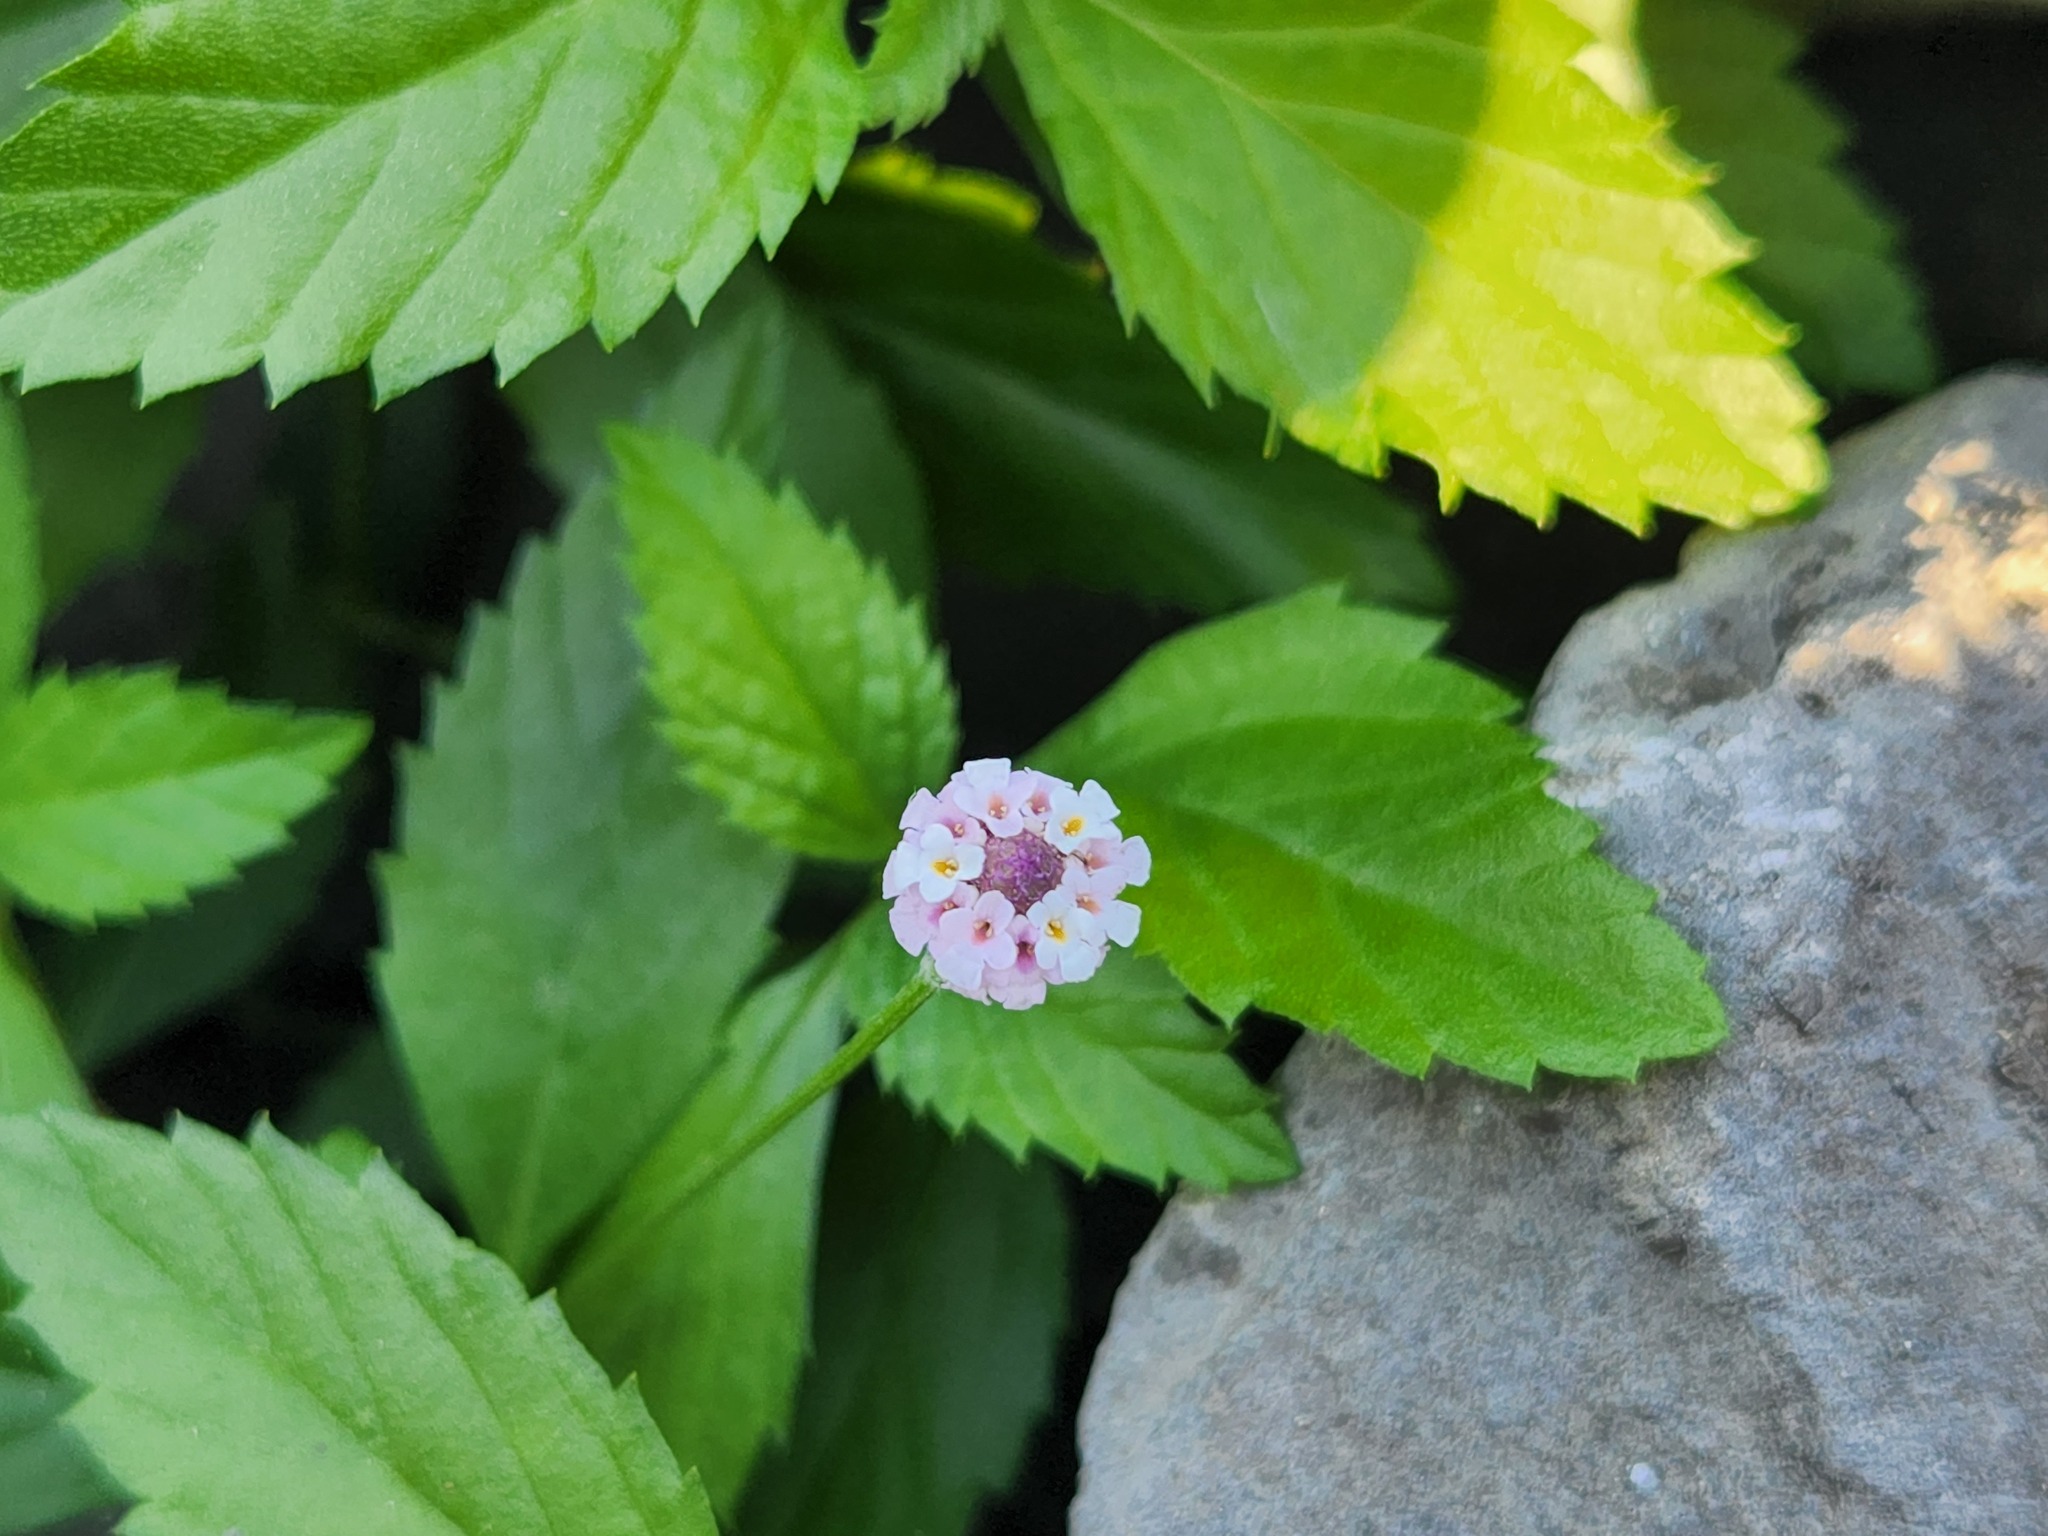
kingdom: Plantae
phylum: Tracheophyta
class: Magnoliopsida
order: Lamiales
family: Verbenaceae
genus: Phyla
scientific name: Phyla lanceolata
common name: Northern fogfruit
